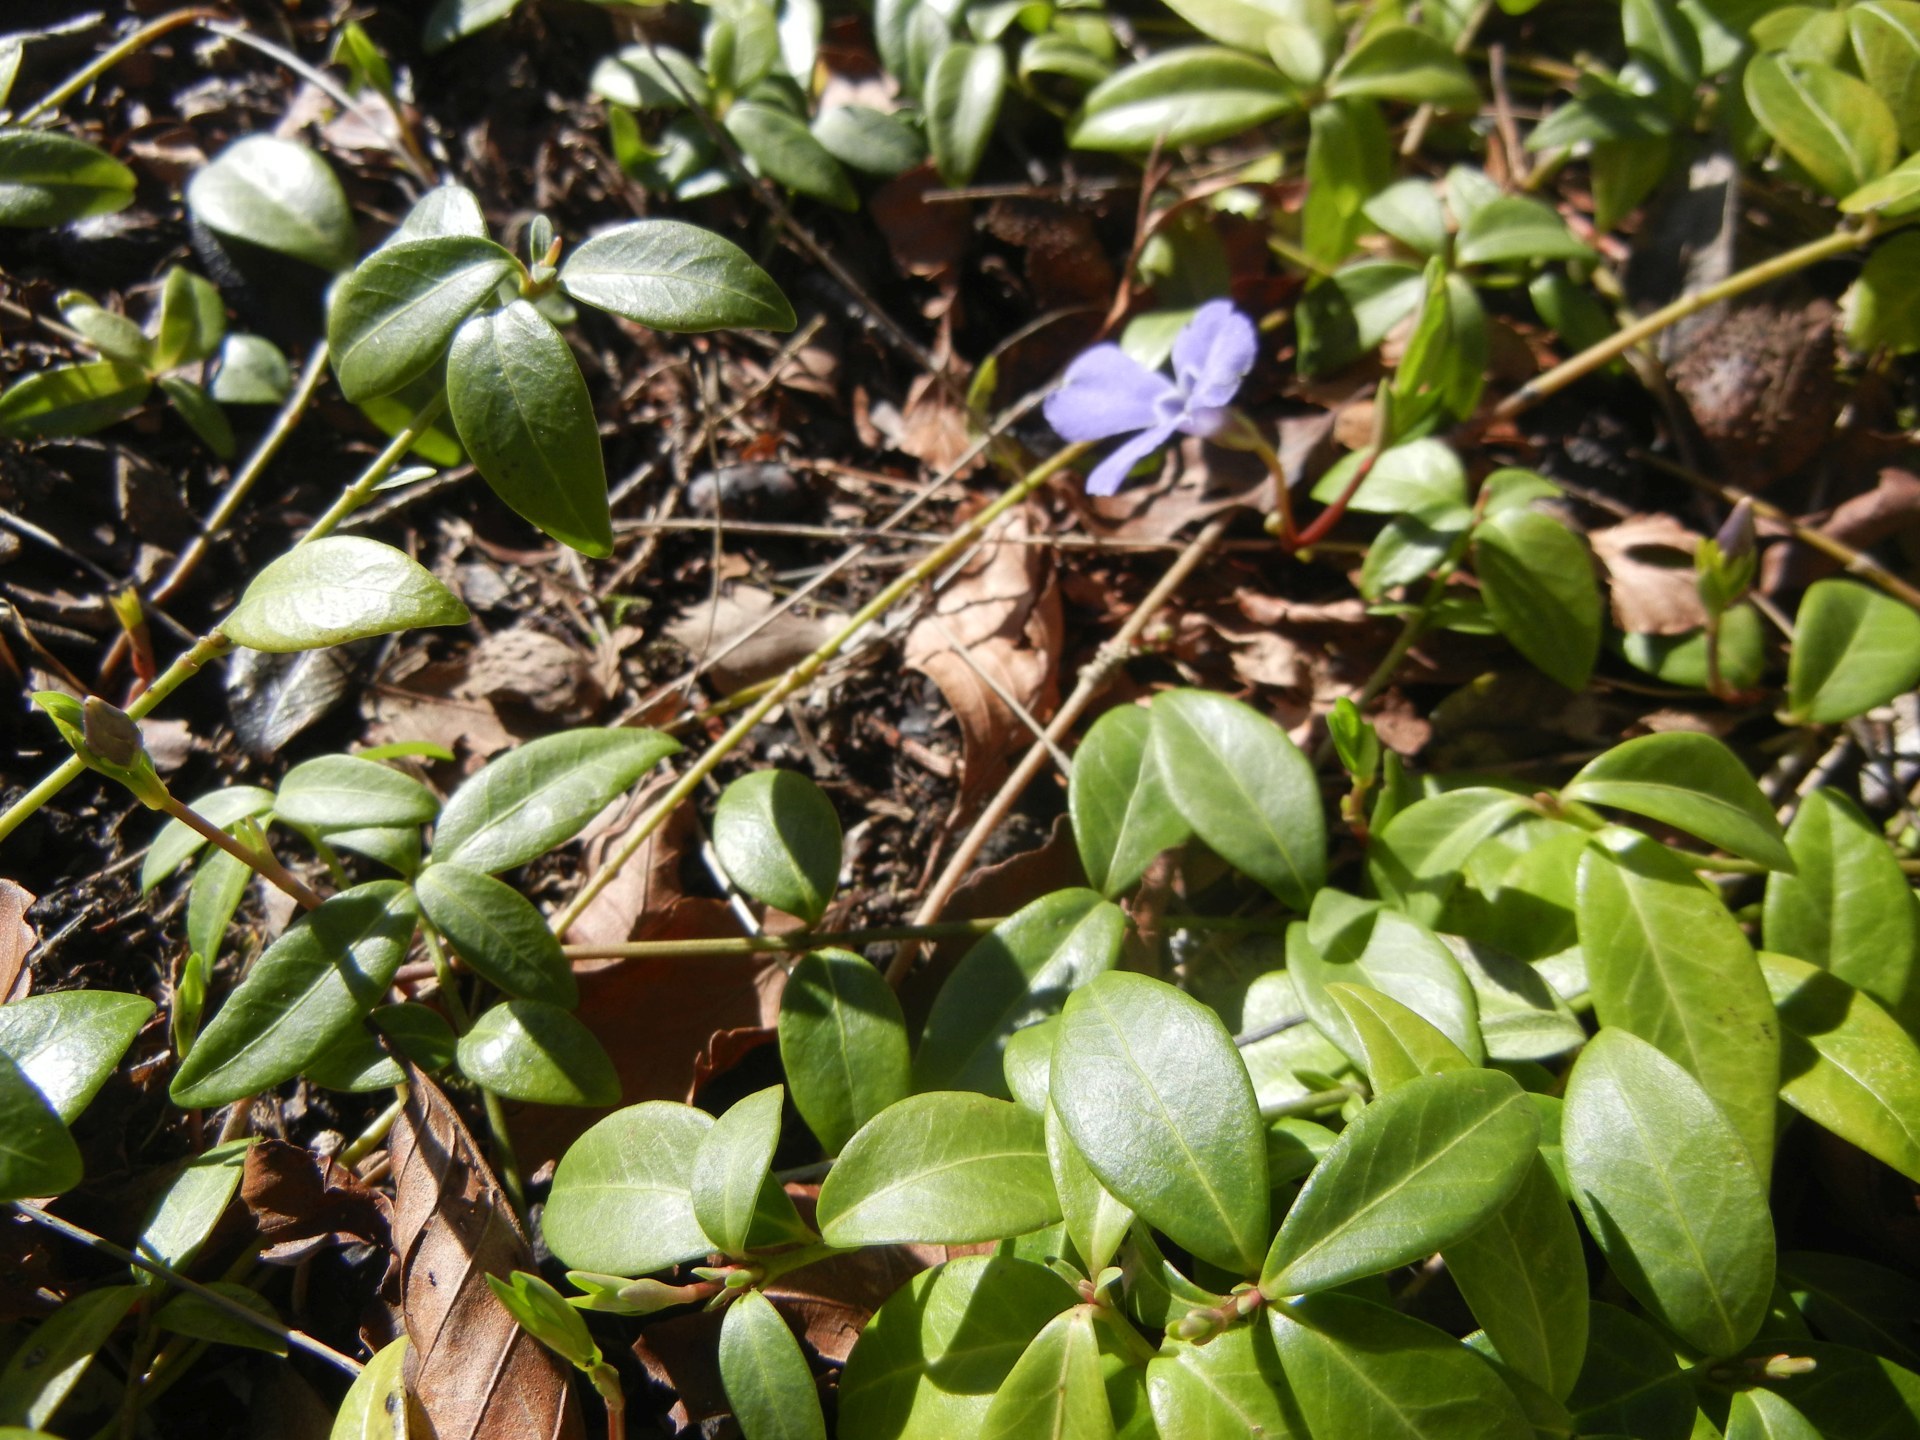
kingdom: Plantae
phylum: Tracheophyta
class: Magnoliopsida
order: Gentianales
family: Apocynaceae
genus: Vinca
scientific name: Vinca minor
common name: Lesser periwinkle
